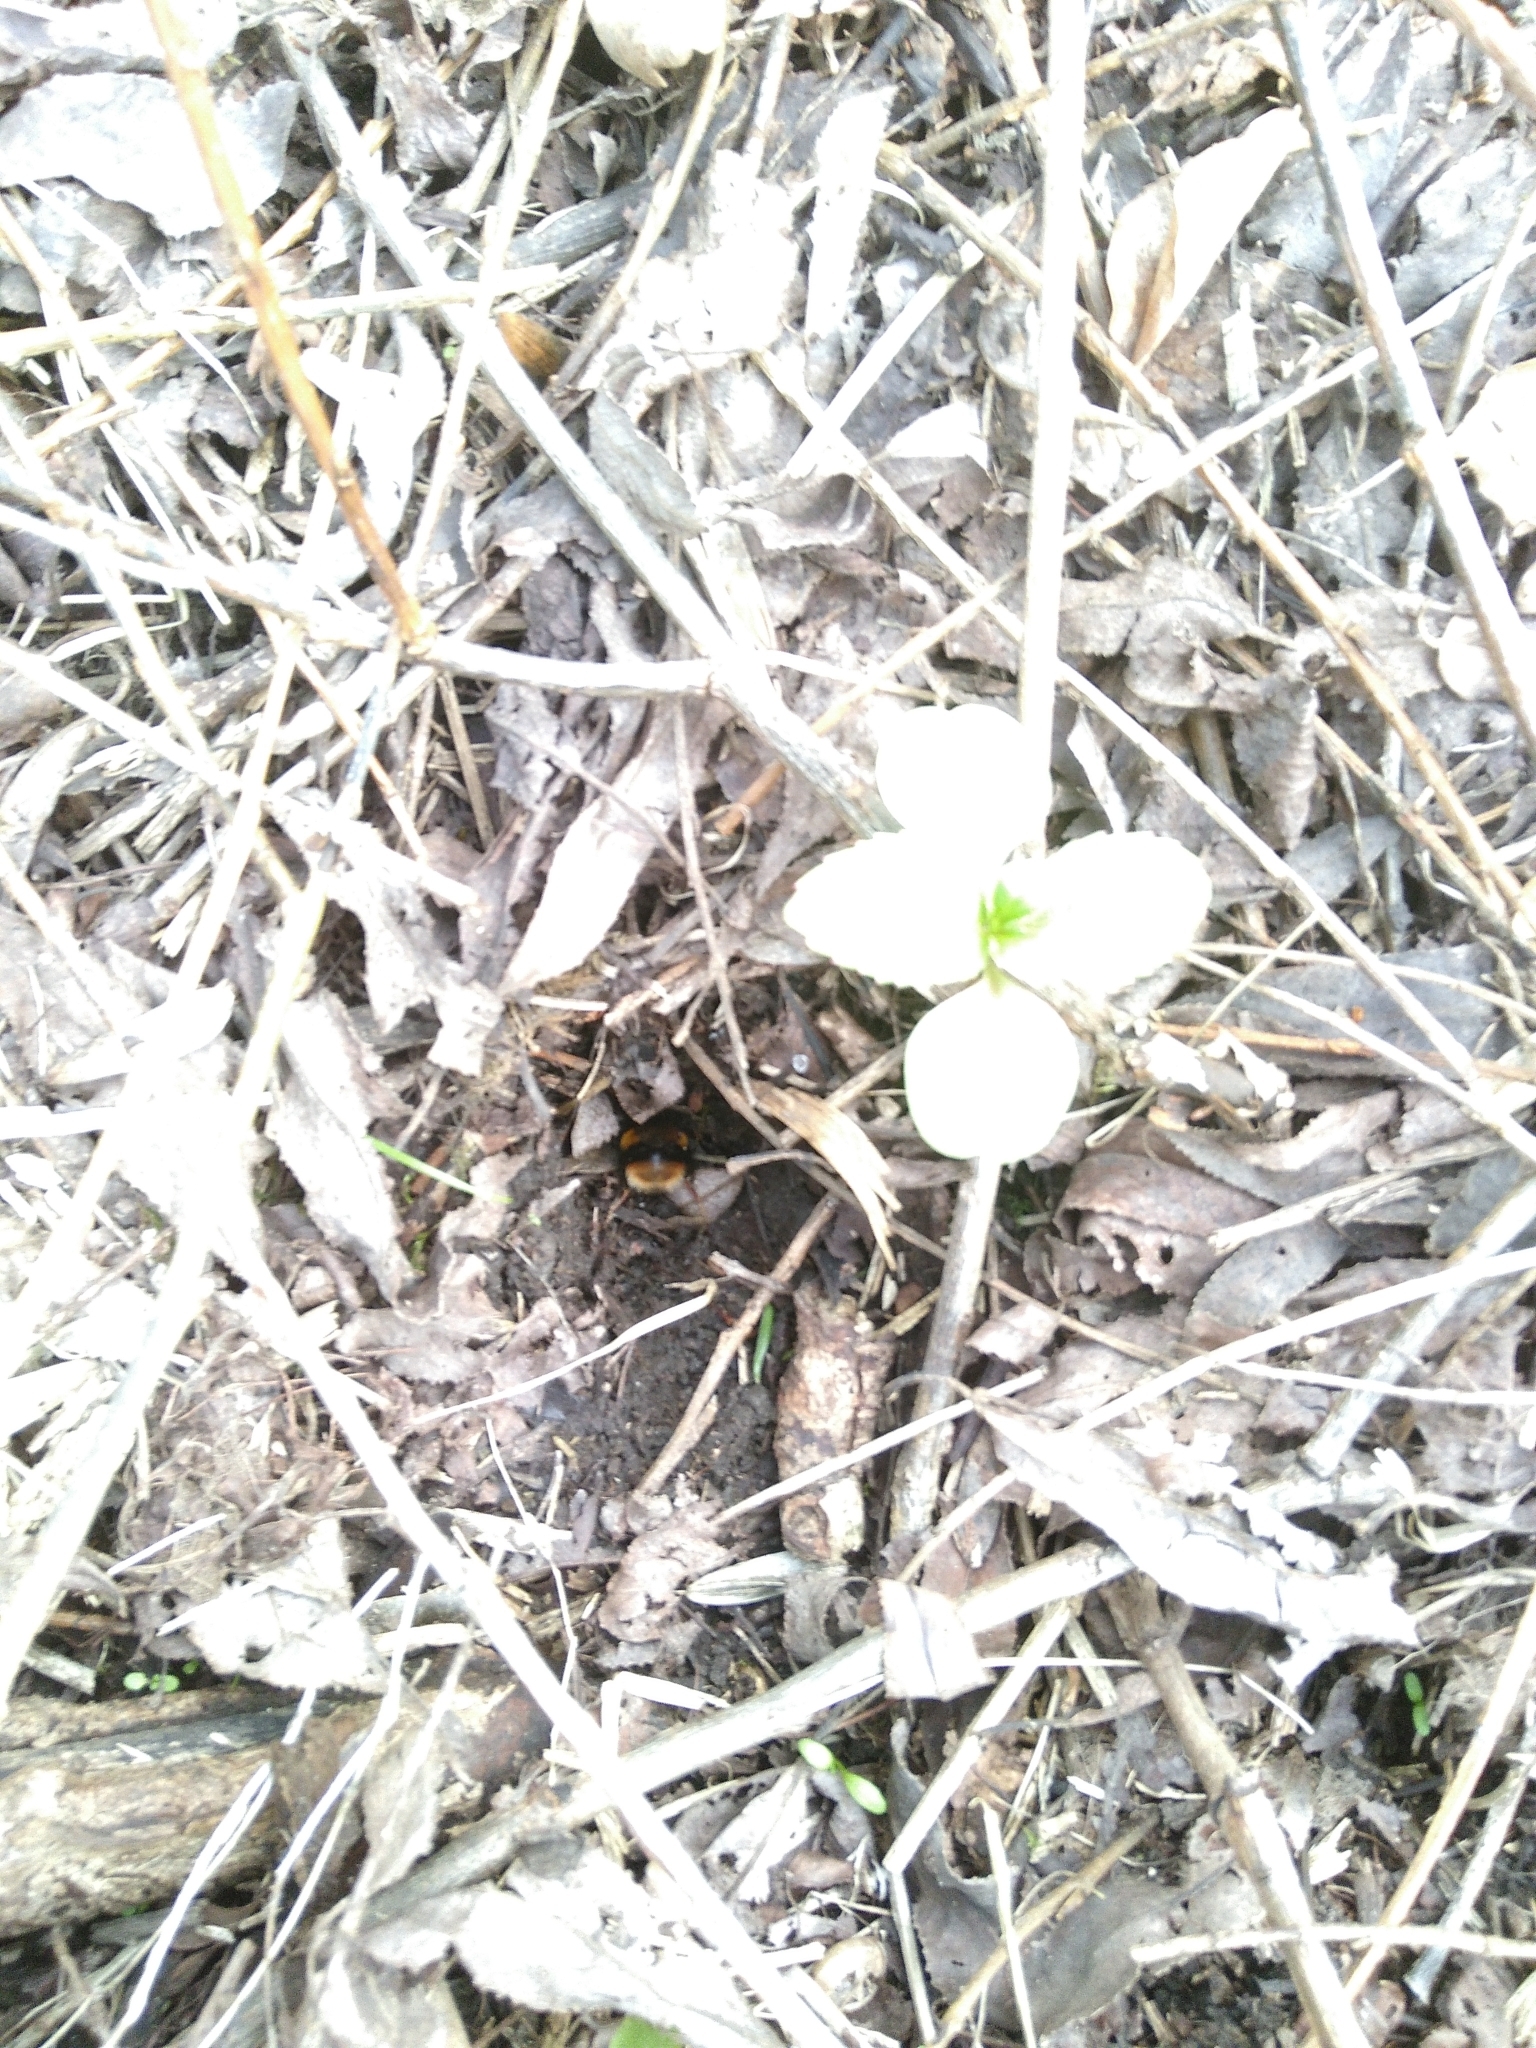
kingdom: Animalia
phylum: Arthropoda
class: Insecta
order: Hymenoptera
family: Apidae
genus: Bombus
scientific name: Bombus terrestris
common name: Buff-tailed bumblebee
